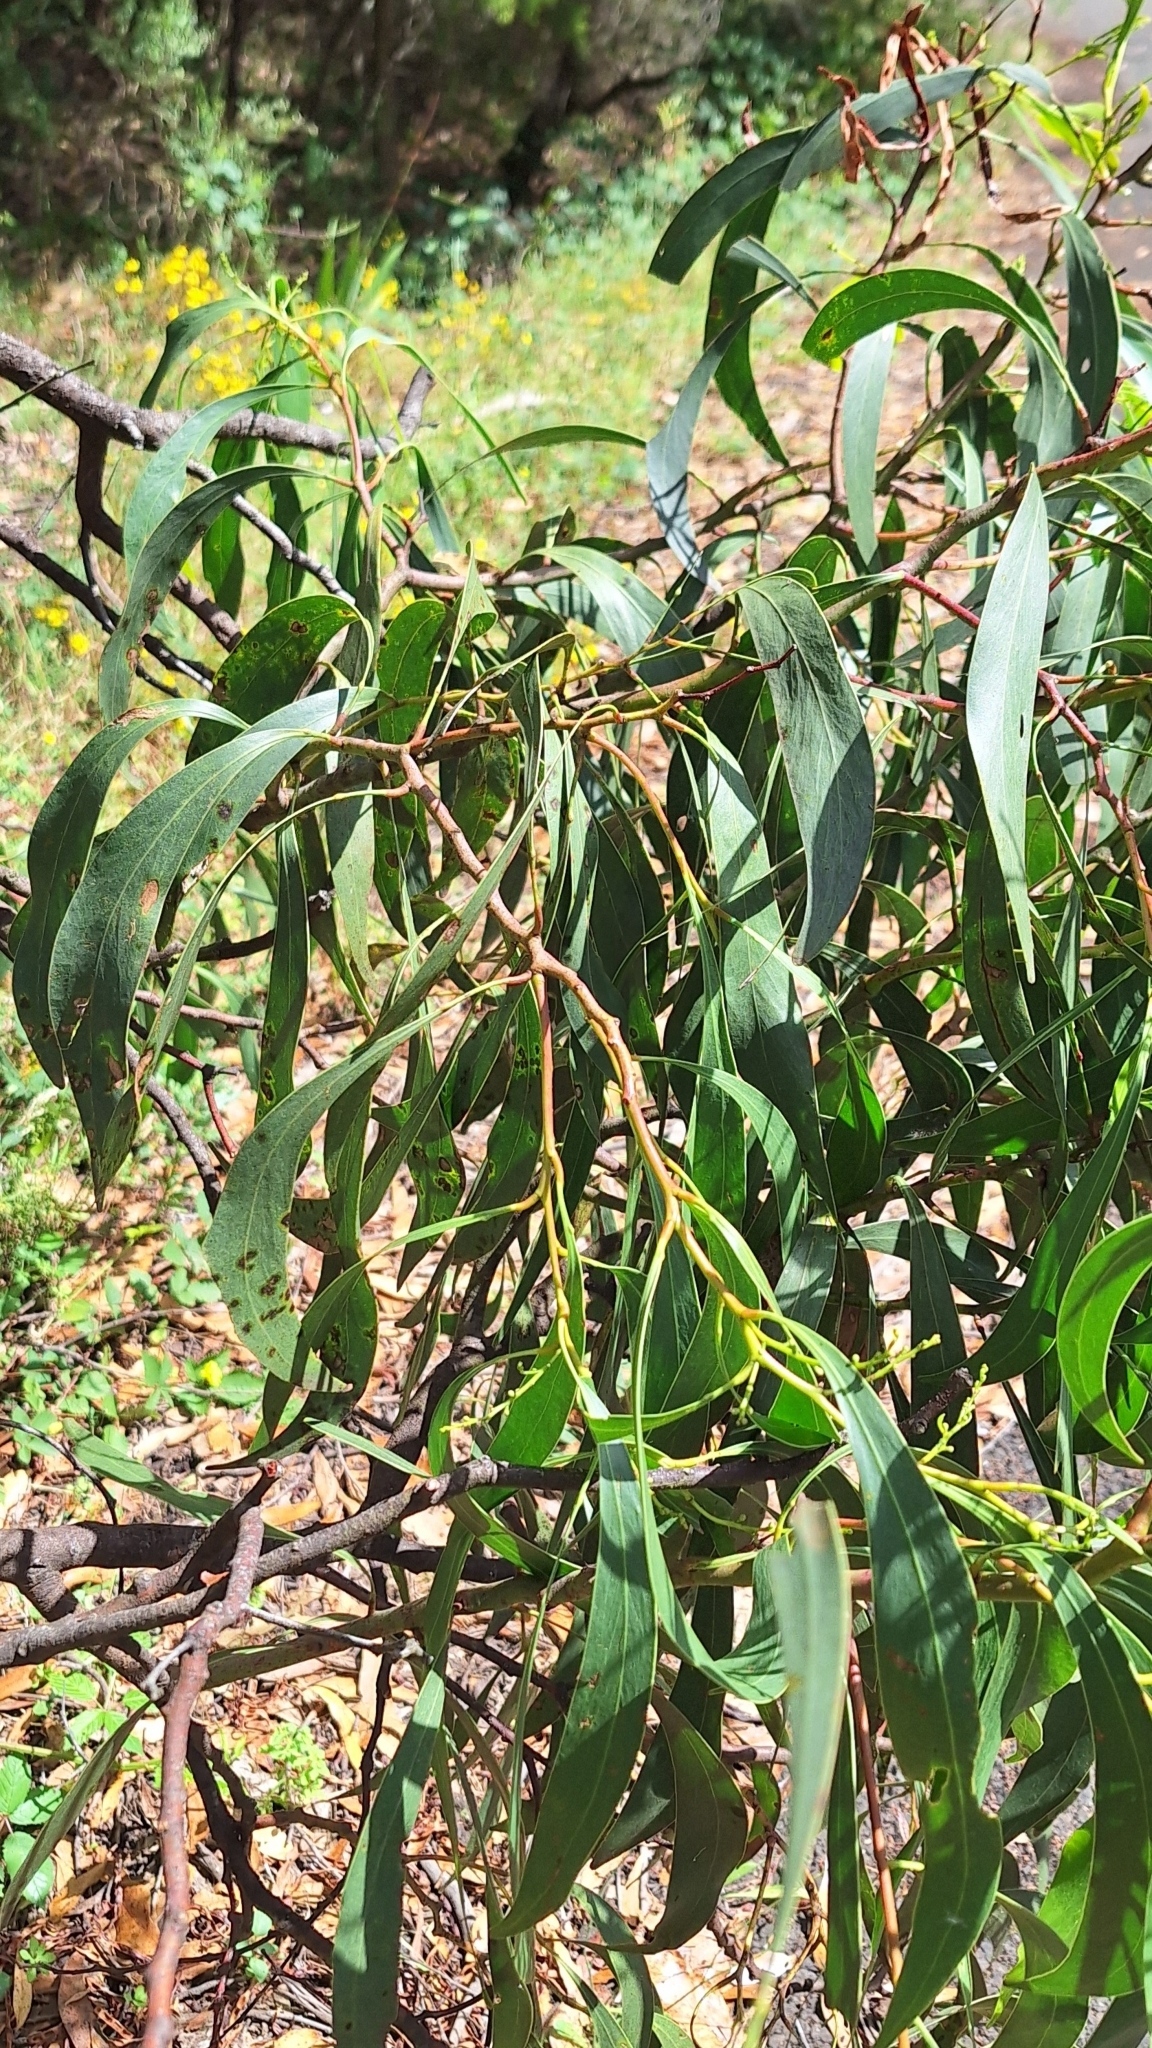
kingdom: Plantae
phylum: Tracheophyta
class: Magnoliopsida
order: Fabales
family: Fabaceae
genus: Acacia
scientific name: Acacia pycnantha
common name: Golden wattle
